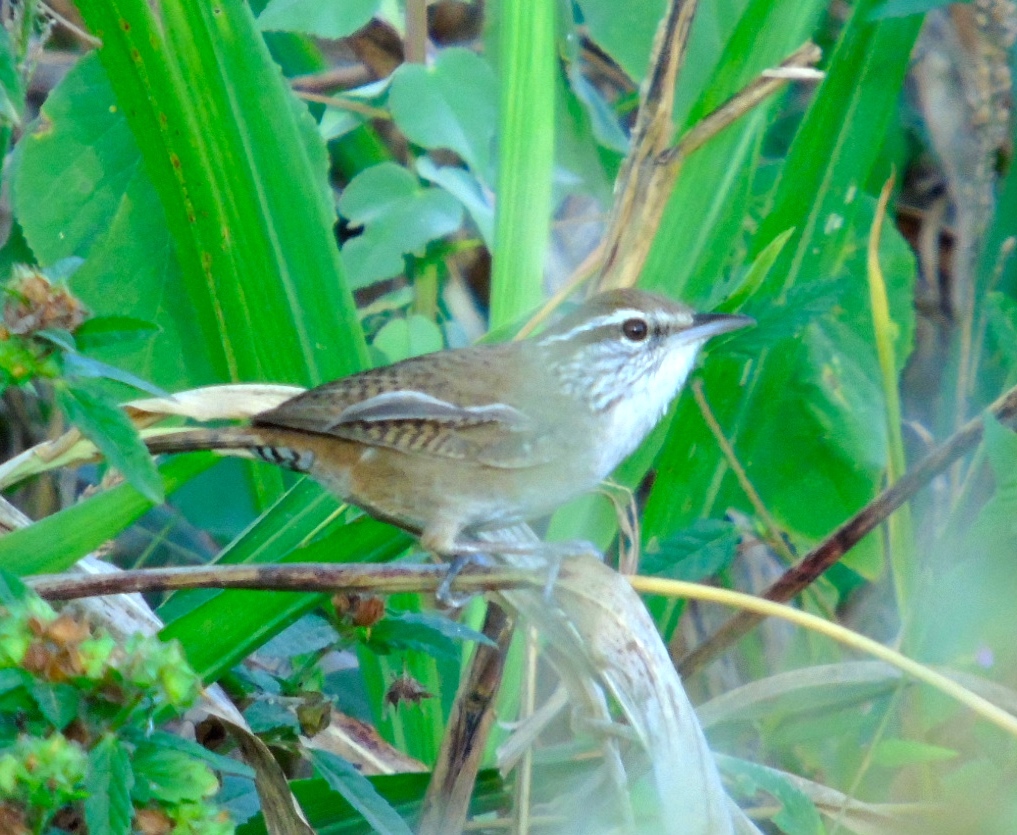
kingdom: Animalia
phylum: Chordata
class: Aves
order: Passeriformes
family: Troglodytidae
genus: Thryophilus
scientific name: Thryophilus sinaloa
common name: Sinaloa wren
